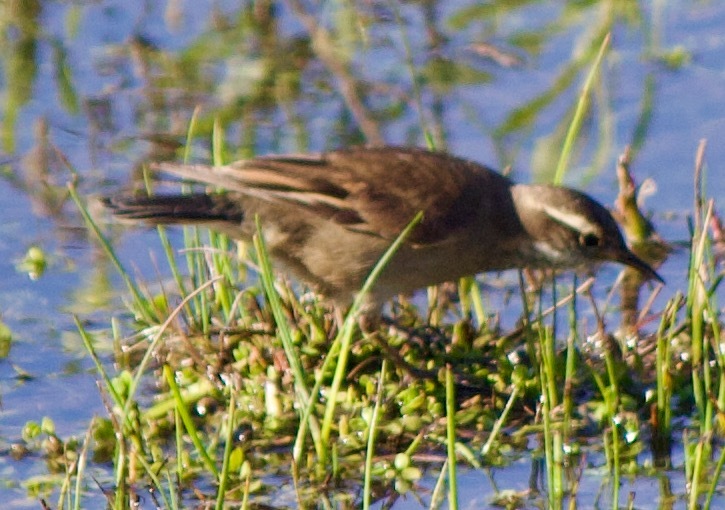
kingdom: Animalia
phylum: Chordata
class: Aves
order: Passeriformes
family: Furnariidae
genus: Cinclodes
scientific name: Cinclodes fuscus
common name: Buff-winged cinclodes
